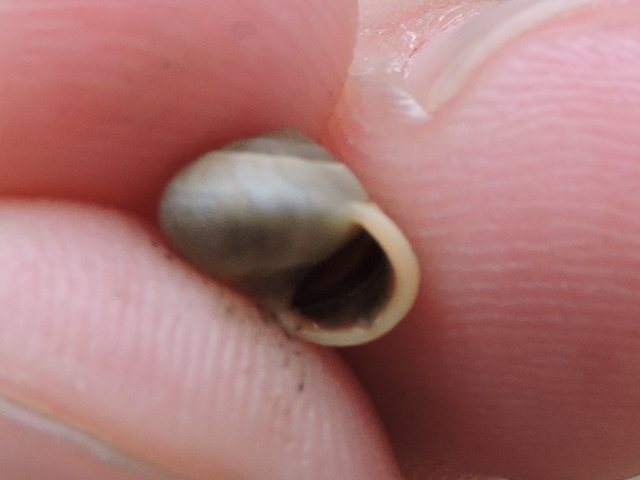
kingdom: Animalia
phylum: Mollusca
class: Gastropoda
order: Cycloneritida
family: Helicinidae
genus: Helicina
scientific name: Helicina orbiculata
